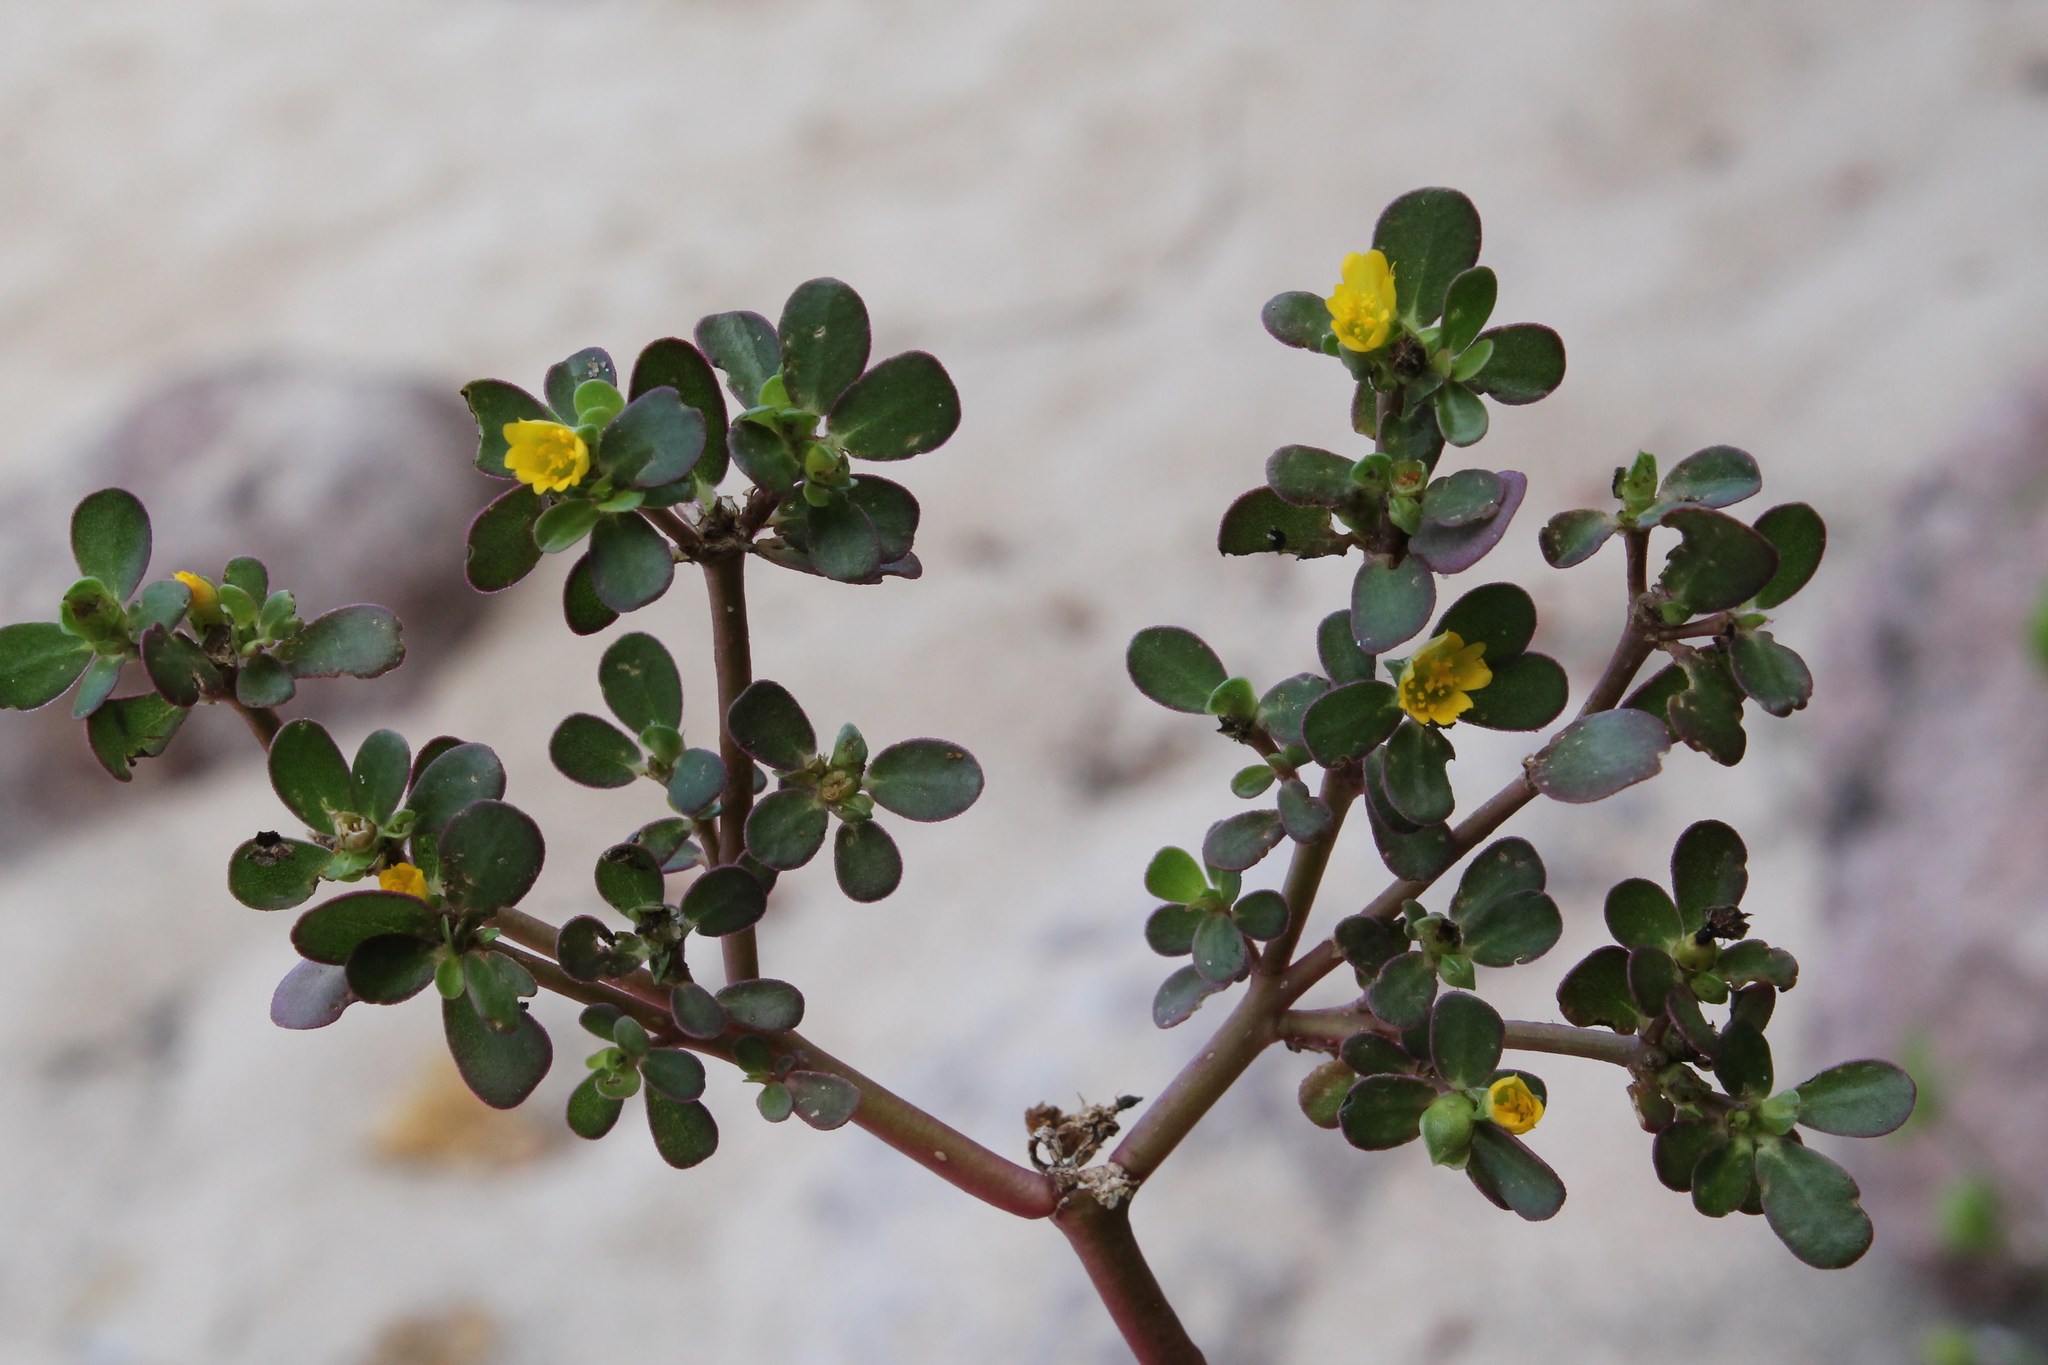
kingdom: Plantae
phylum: Tracheophyta
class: Magnoliopsida
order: Caryophyllales
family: Portulacaceae
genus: Portulaca
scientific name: Portulaca oleracea
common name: Common purslane
